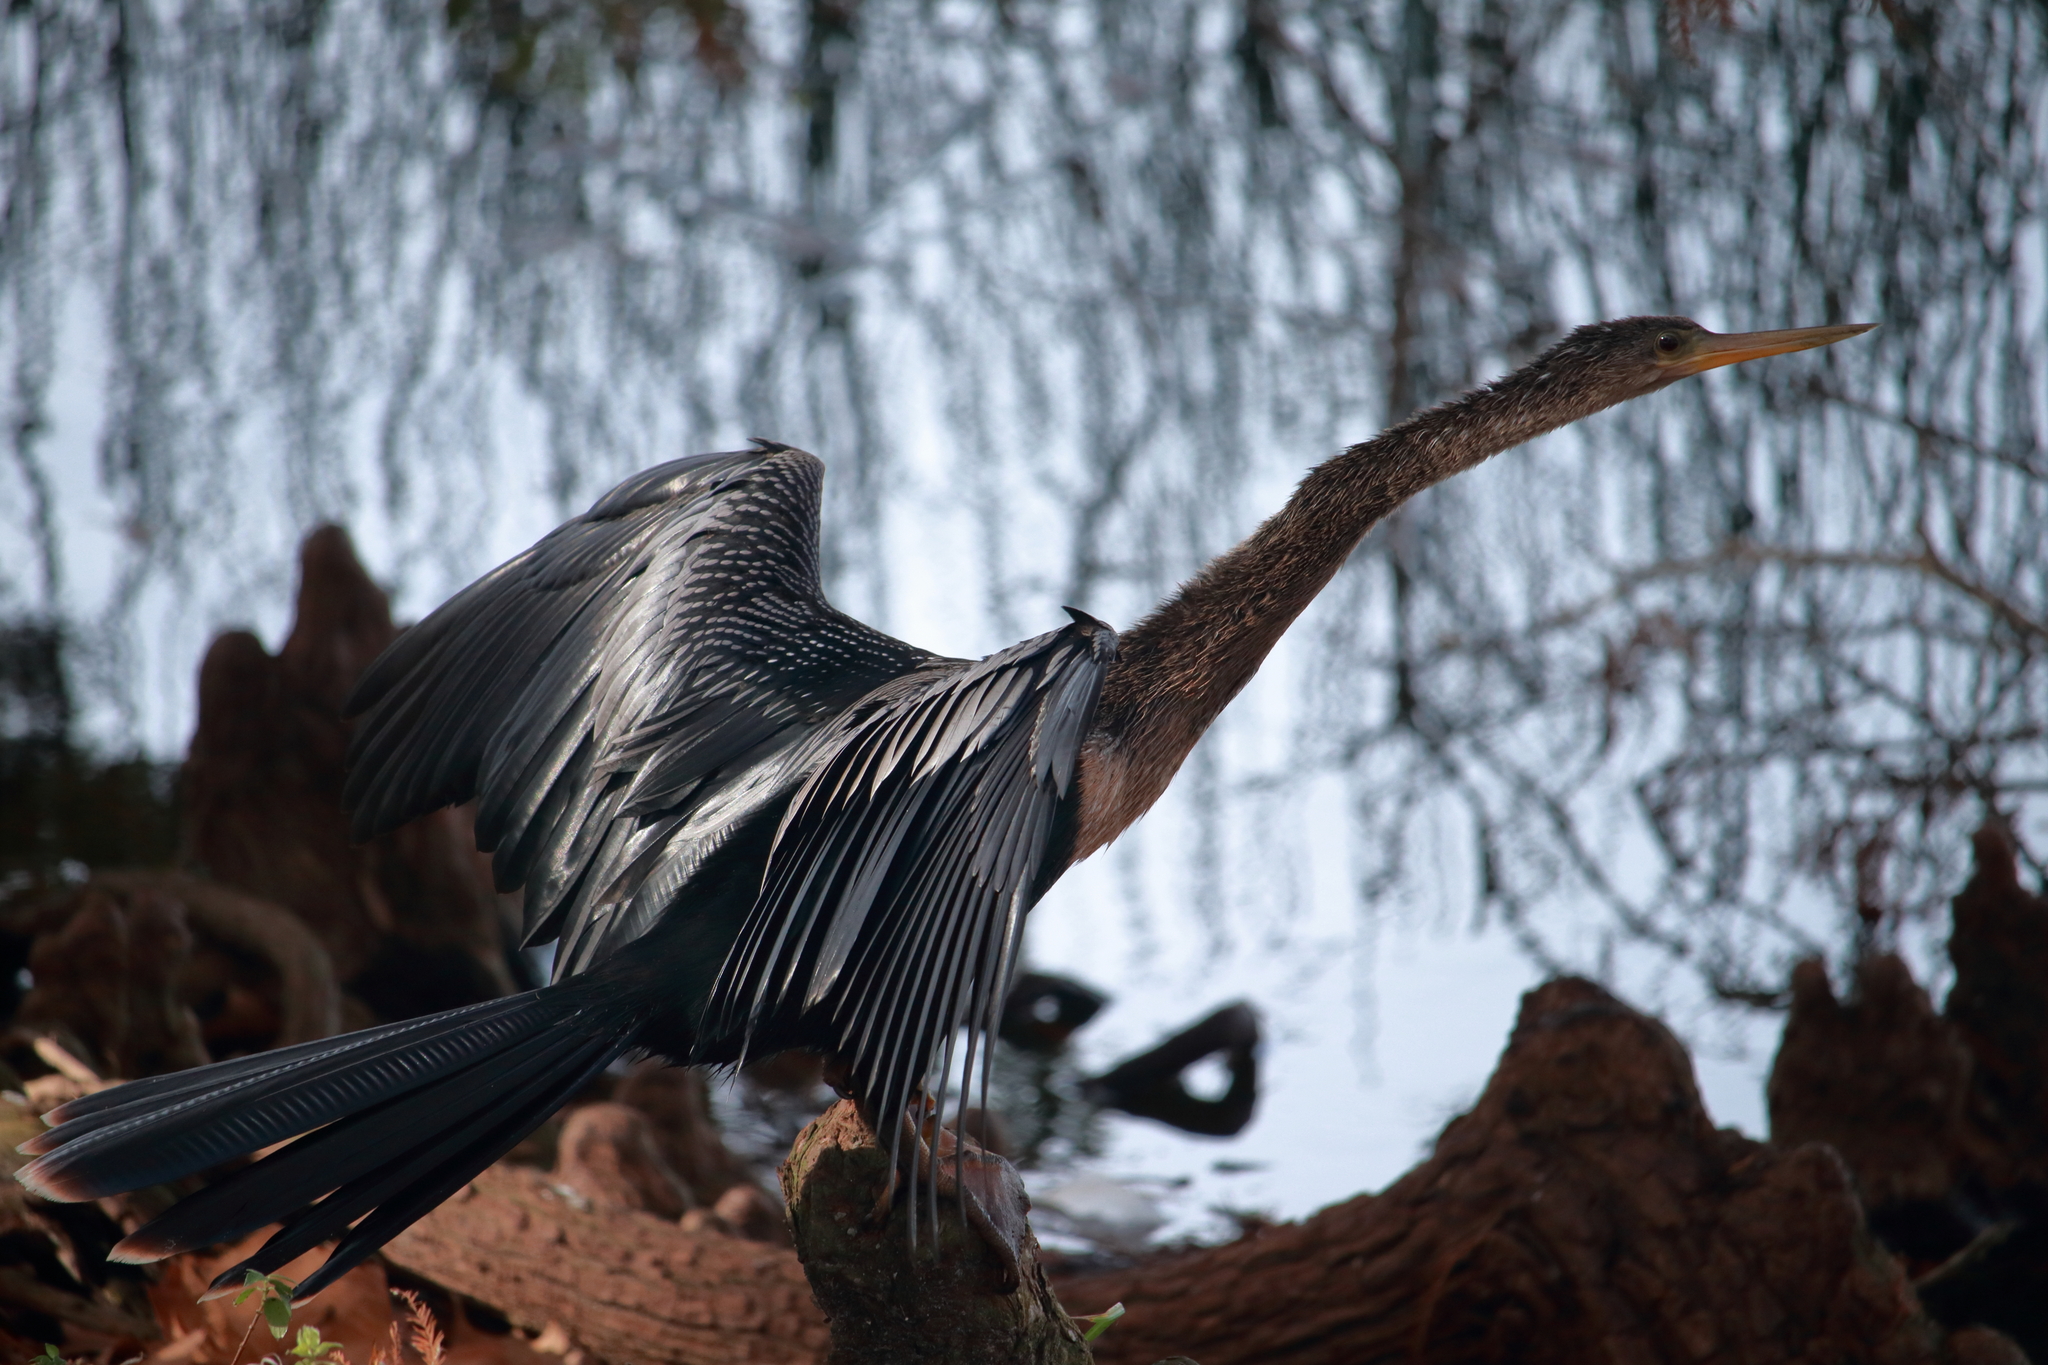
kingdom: Animalia
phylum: Chordata
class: Aves
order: Suliformes
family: Anhingidae
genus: Anhinga
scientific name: Anhinga anhinga
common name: Anhinga
